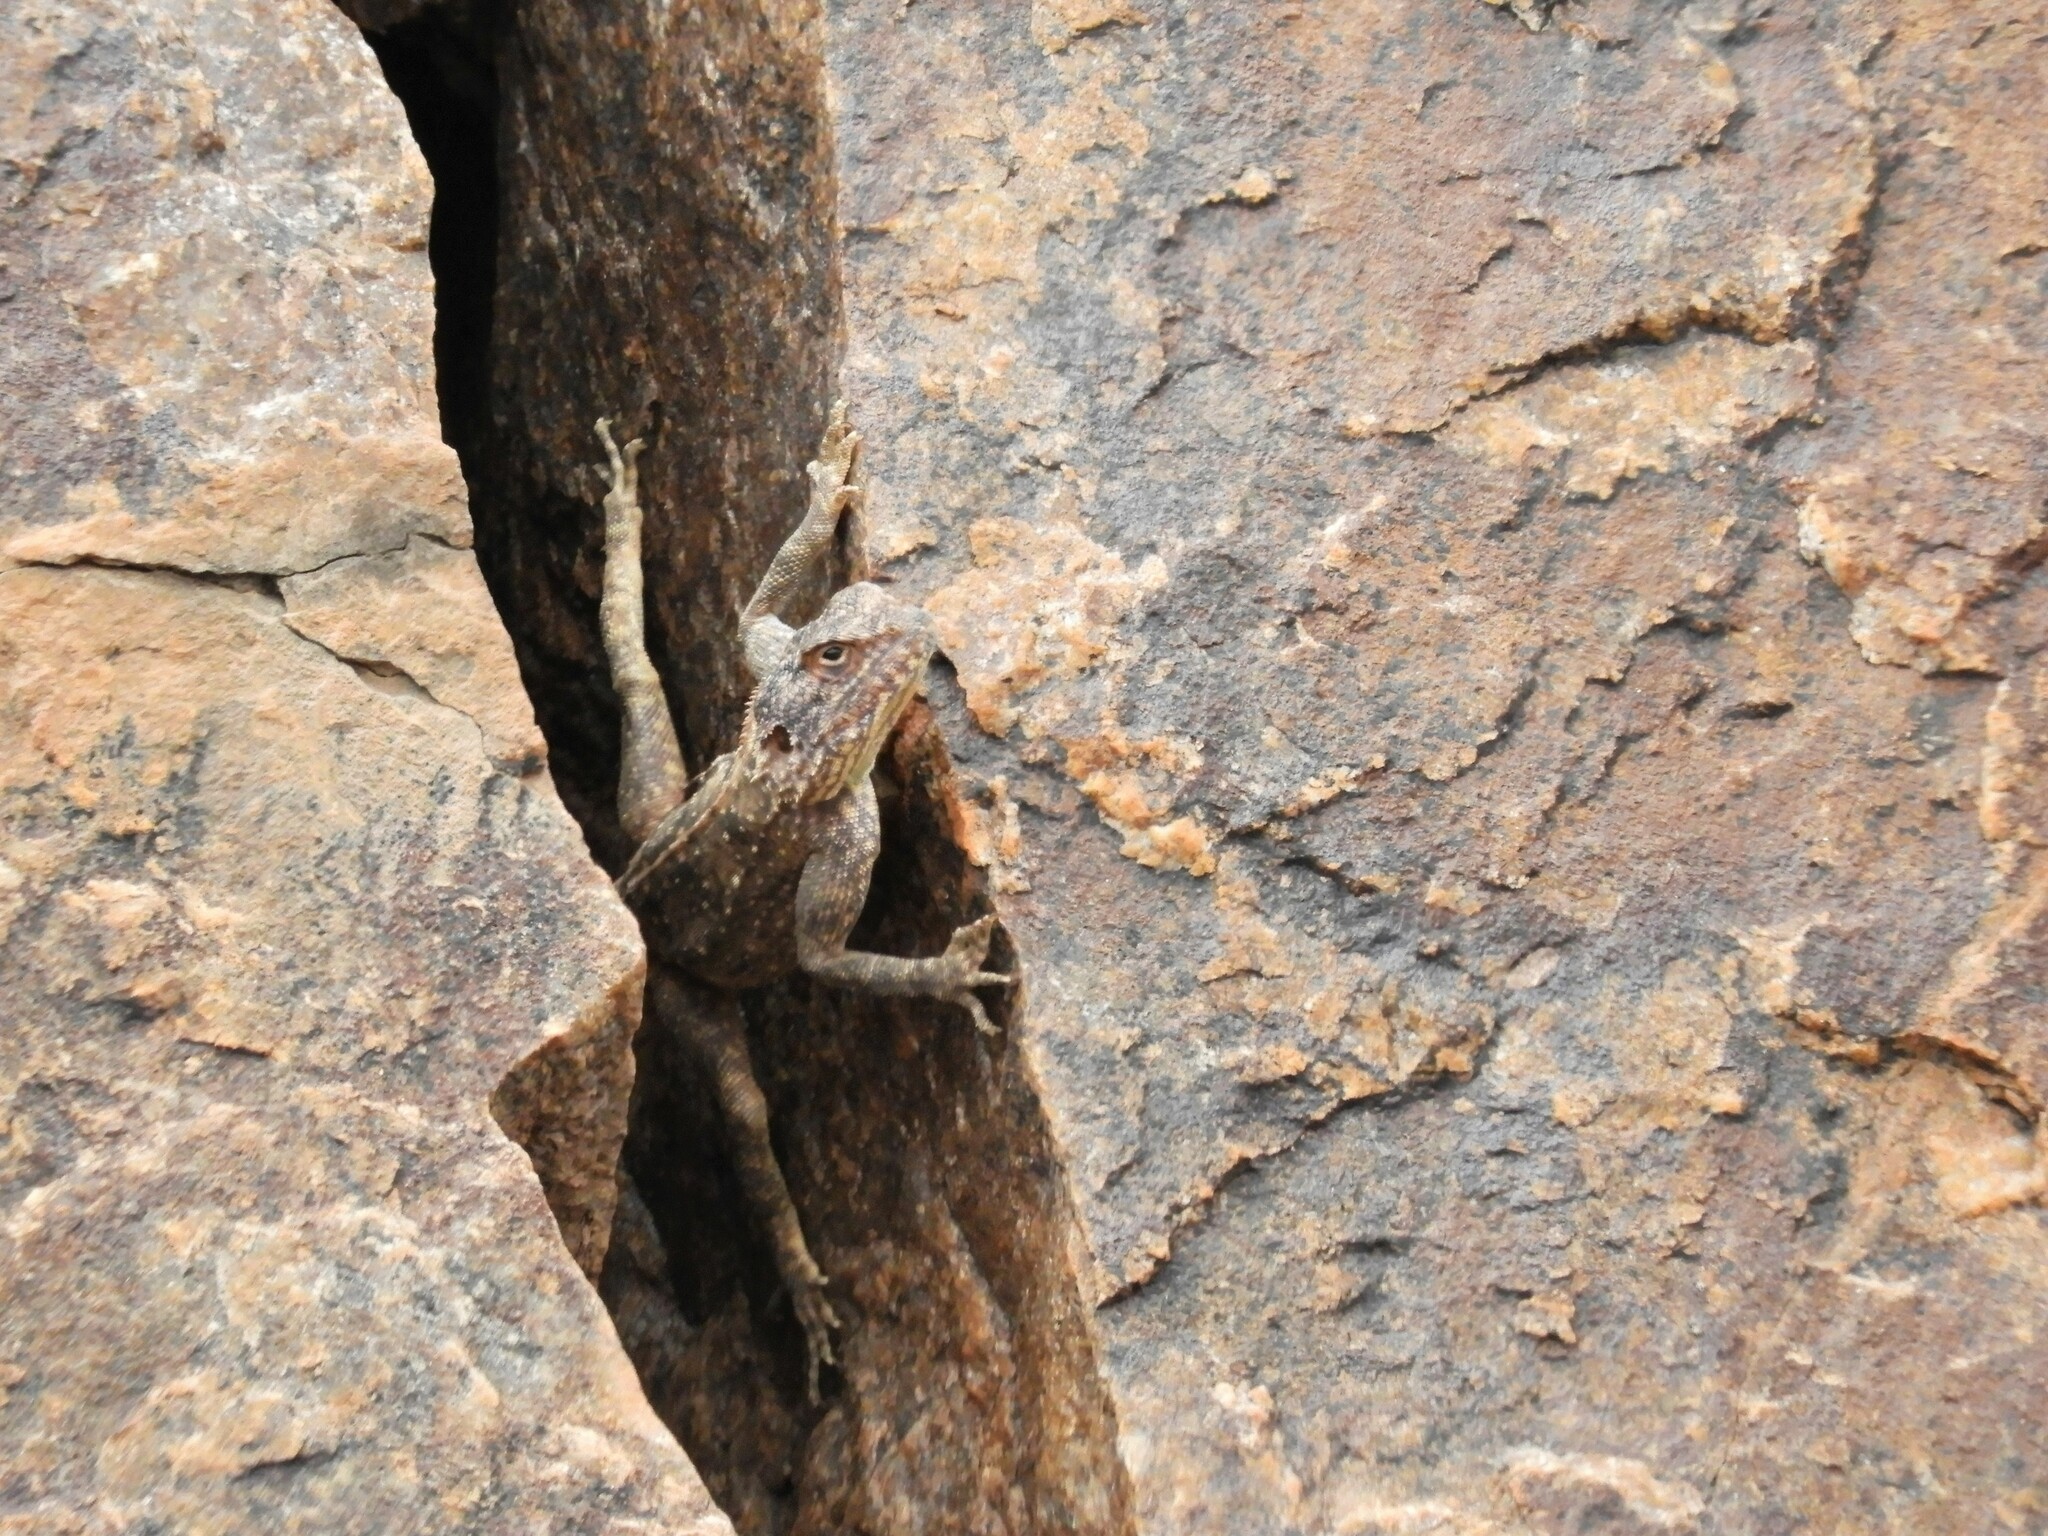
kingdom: Animalia
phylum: Chordata
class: Squamata
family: Agamidae
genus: Agama
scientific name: Agama atra
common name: Southern african rock agama
